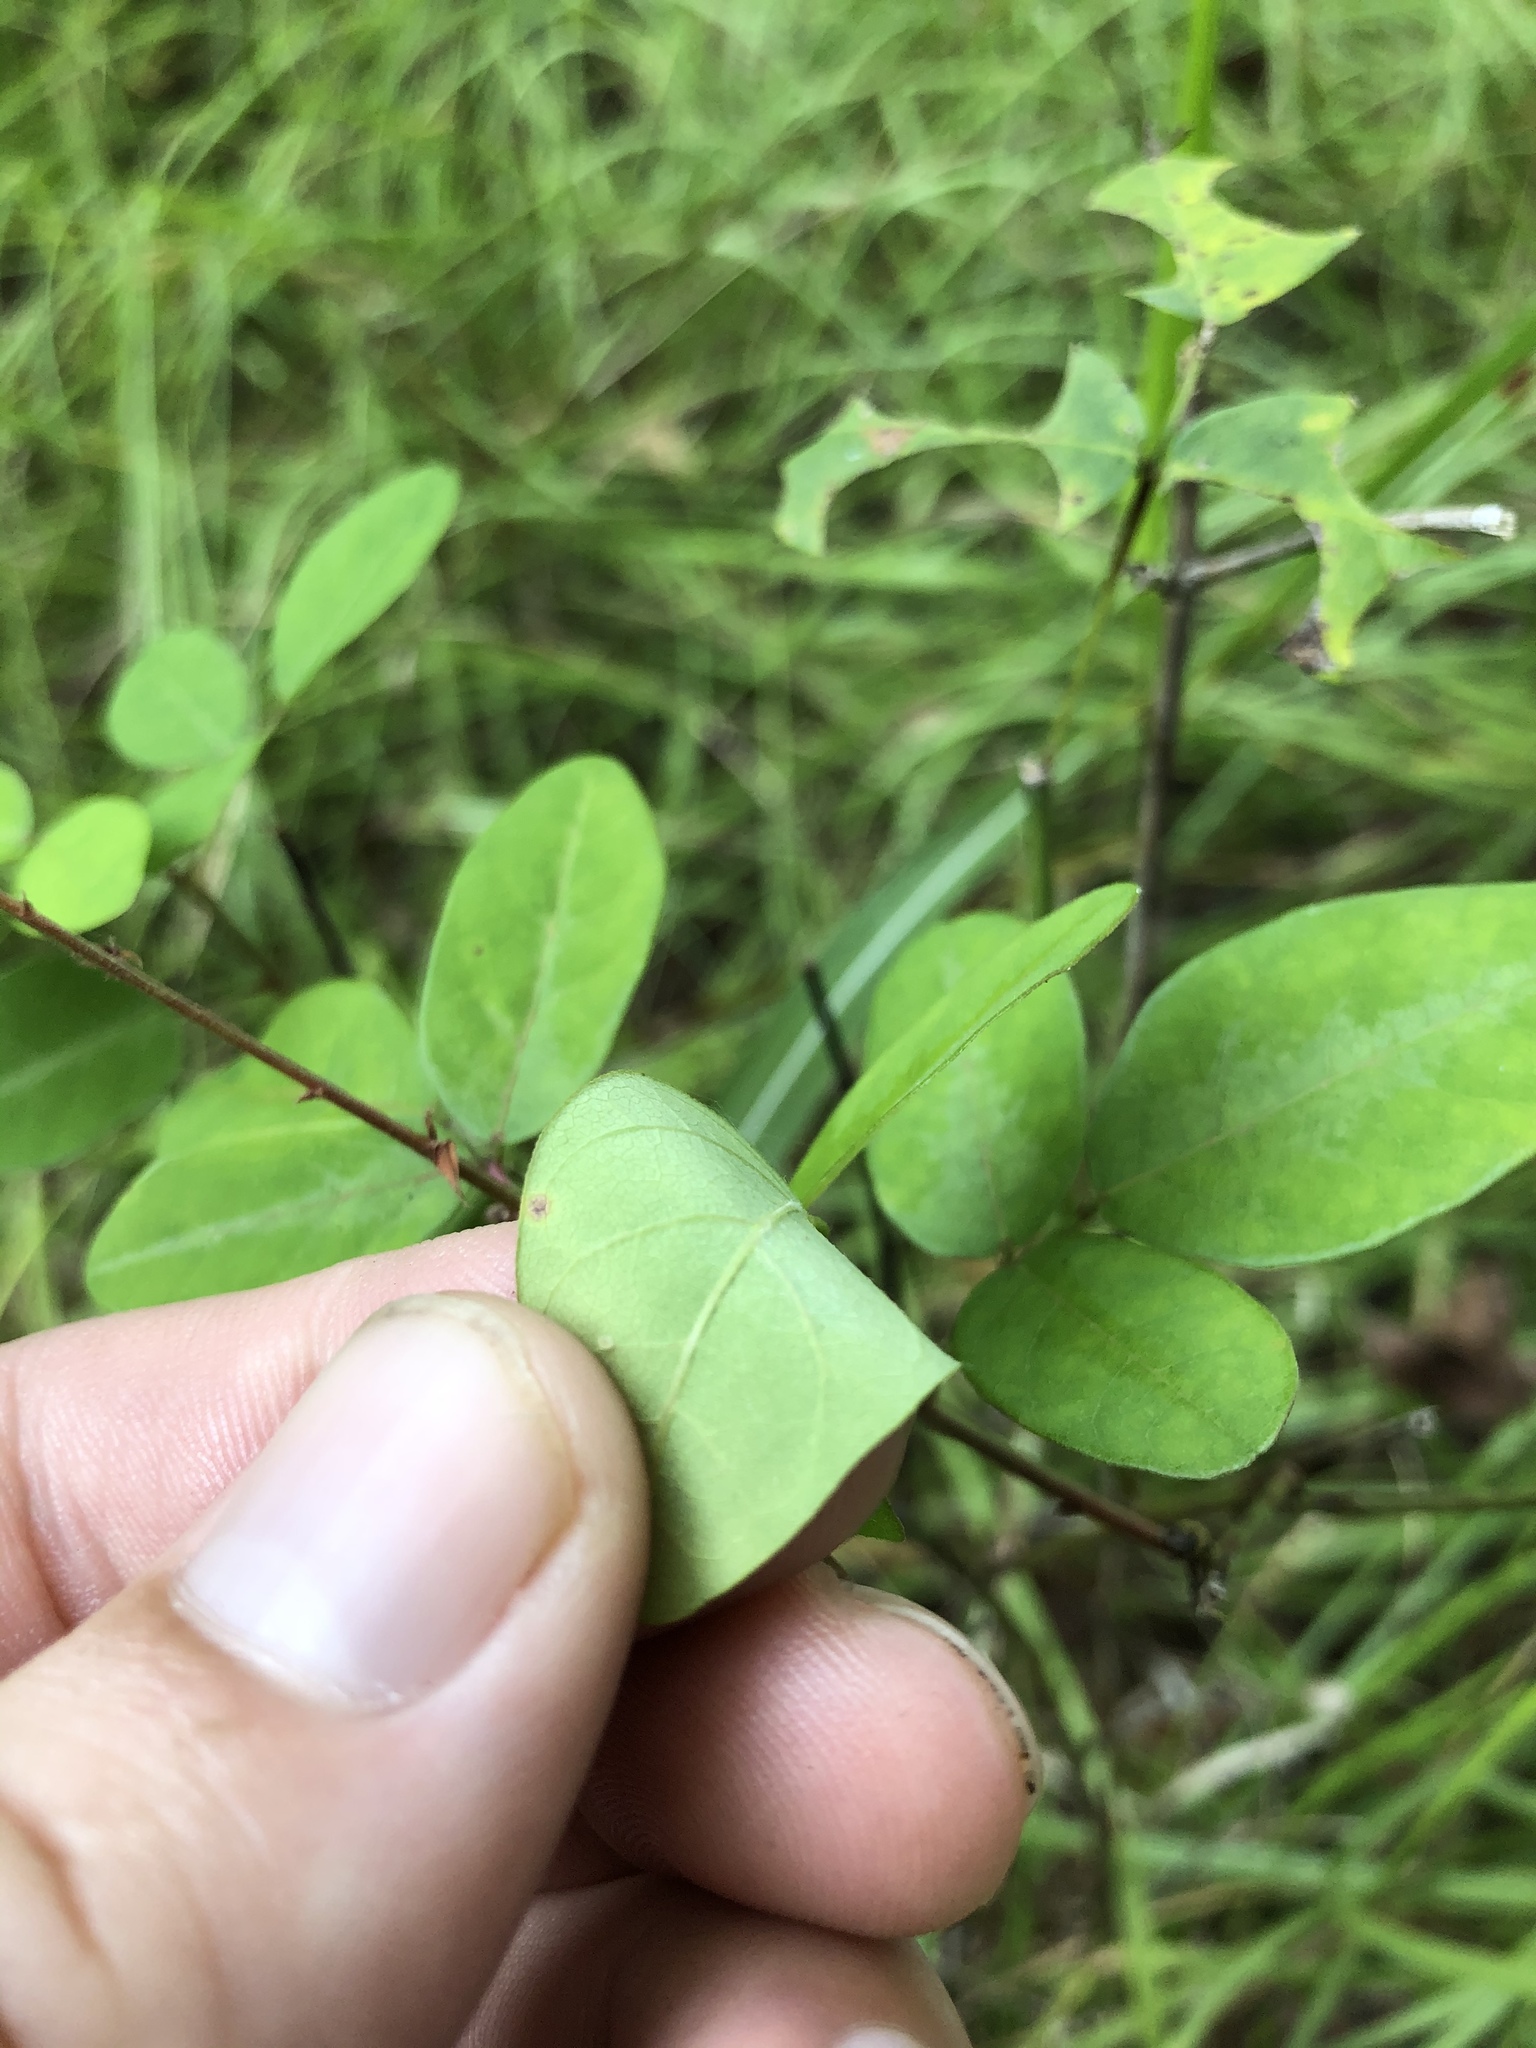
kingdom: Plantae
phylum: Tracheophyta
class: Magnoliopsida
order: Fabales
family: Fabaceae
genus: Desmodium
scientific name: Desmodium glabellum
